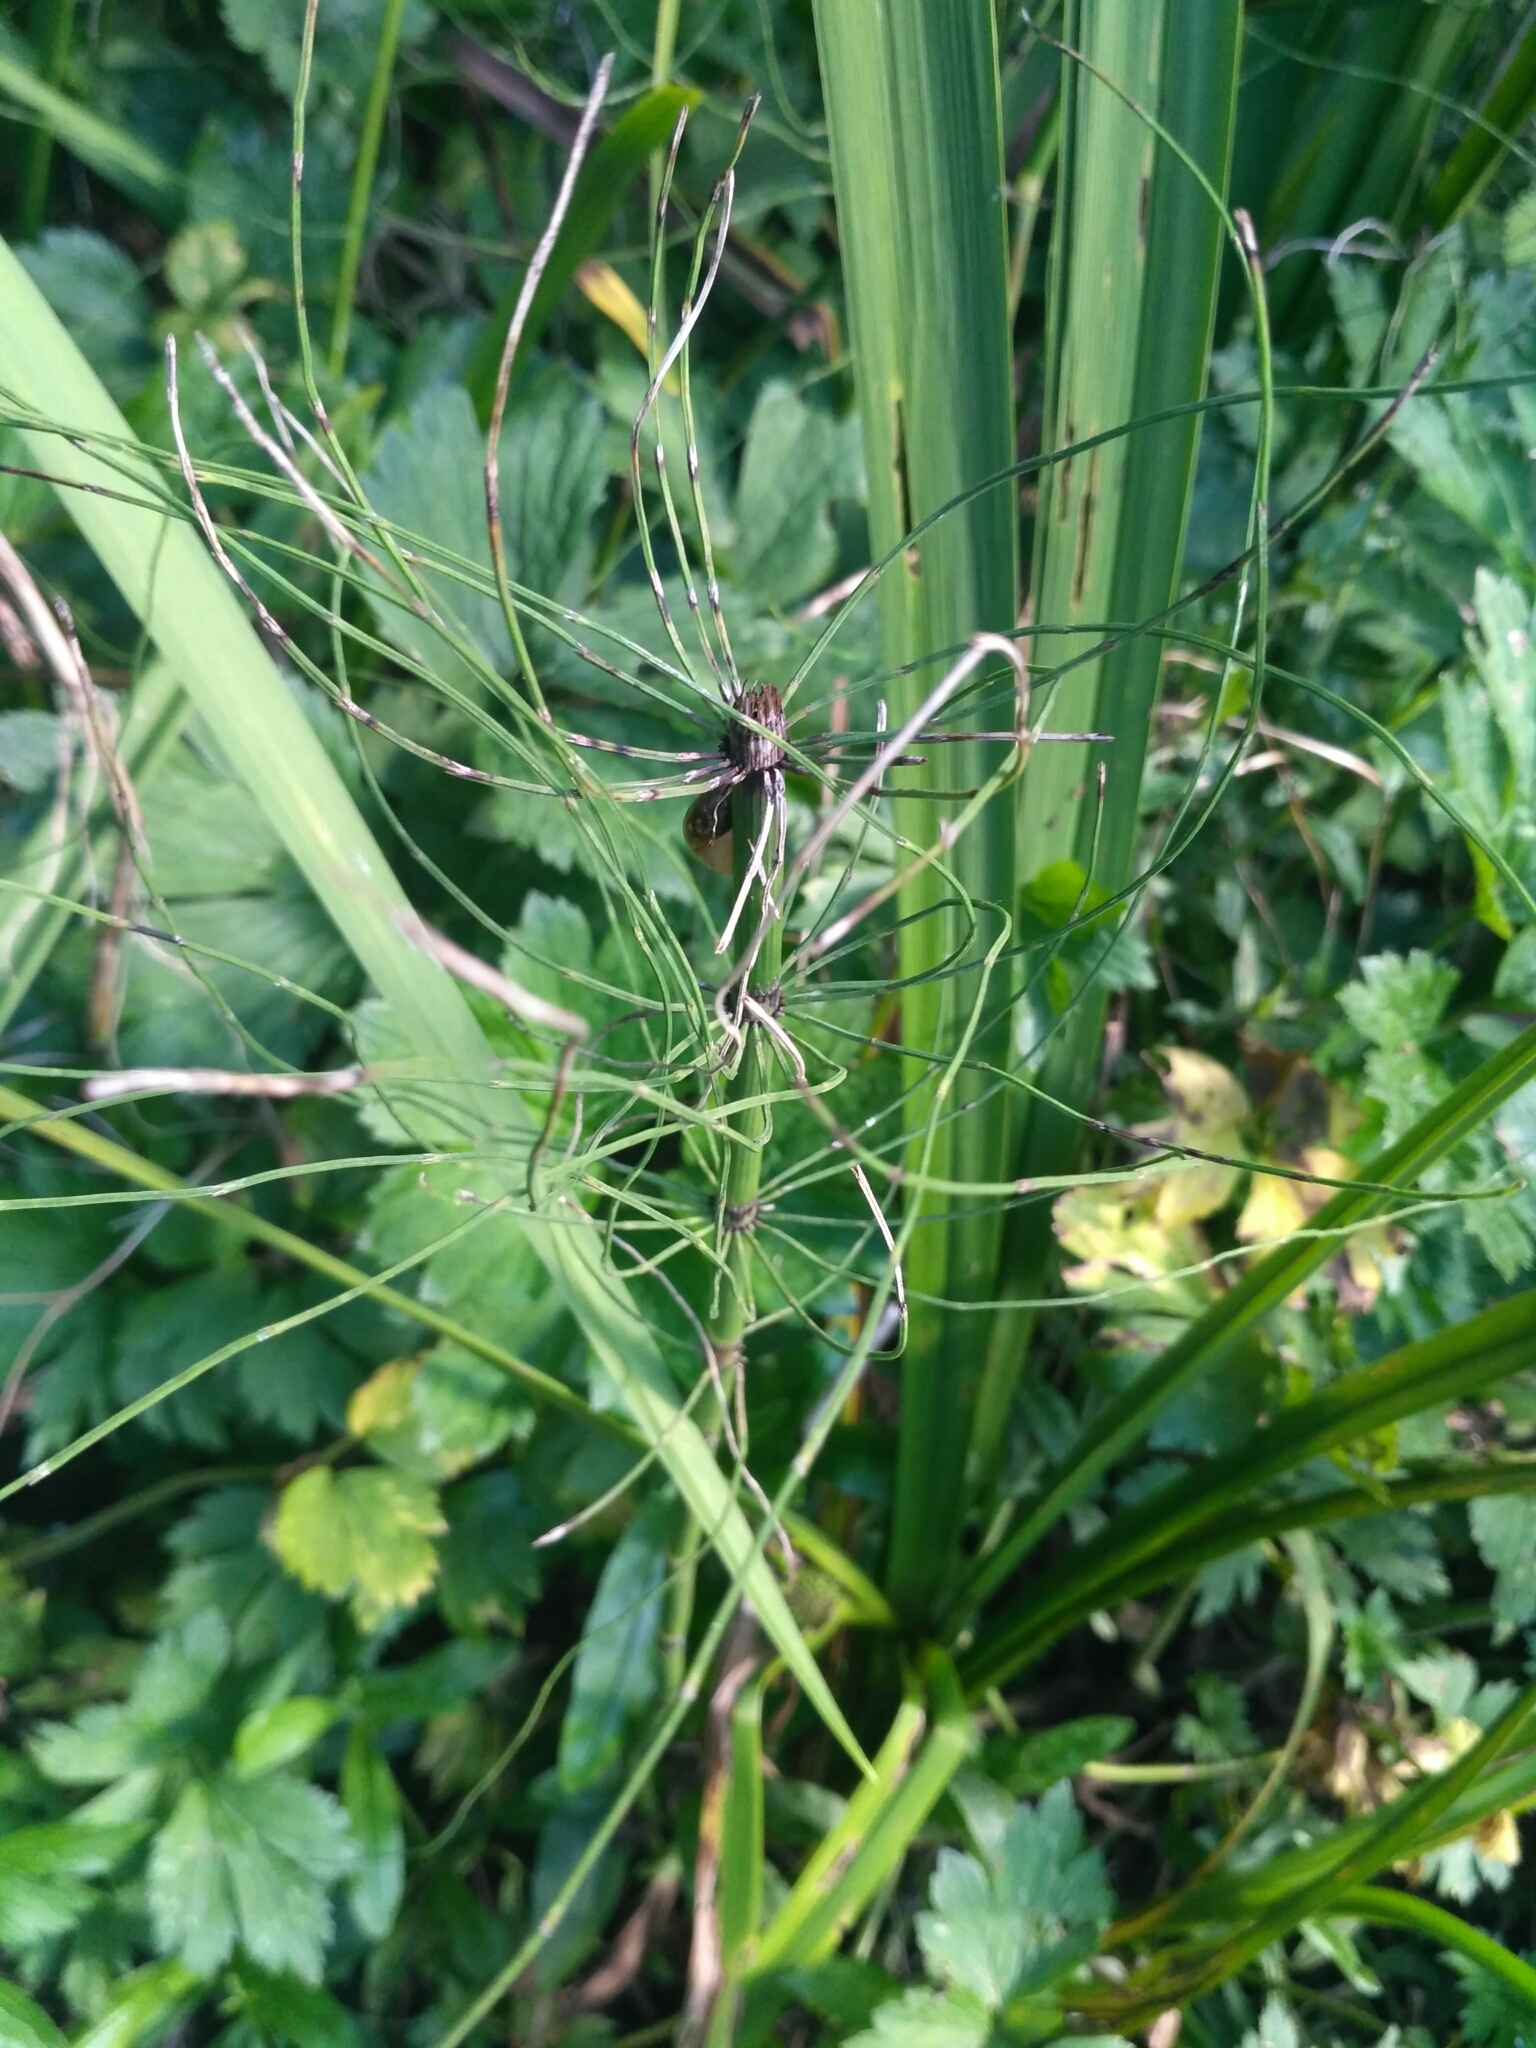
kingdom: Plantae
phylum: Tracheophyta
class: Polypodiopsida
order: Equisetales
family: Equisetaceae
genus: Equisetum
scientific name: Equisetum fluviatile
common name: Water horsetail
